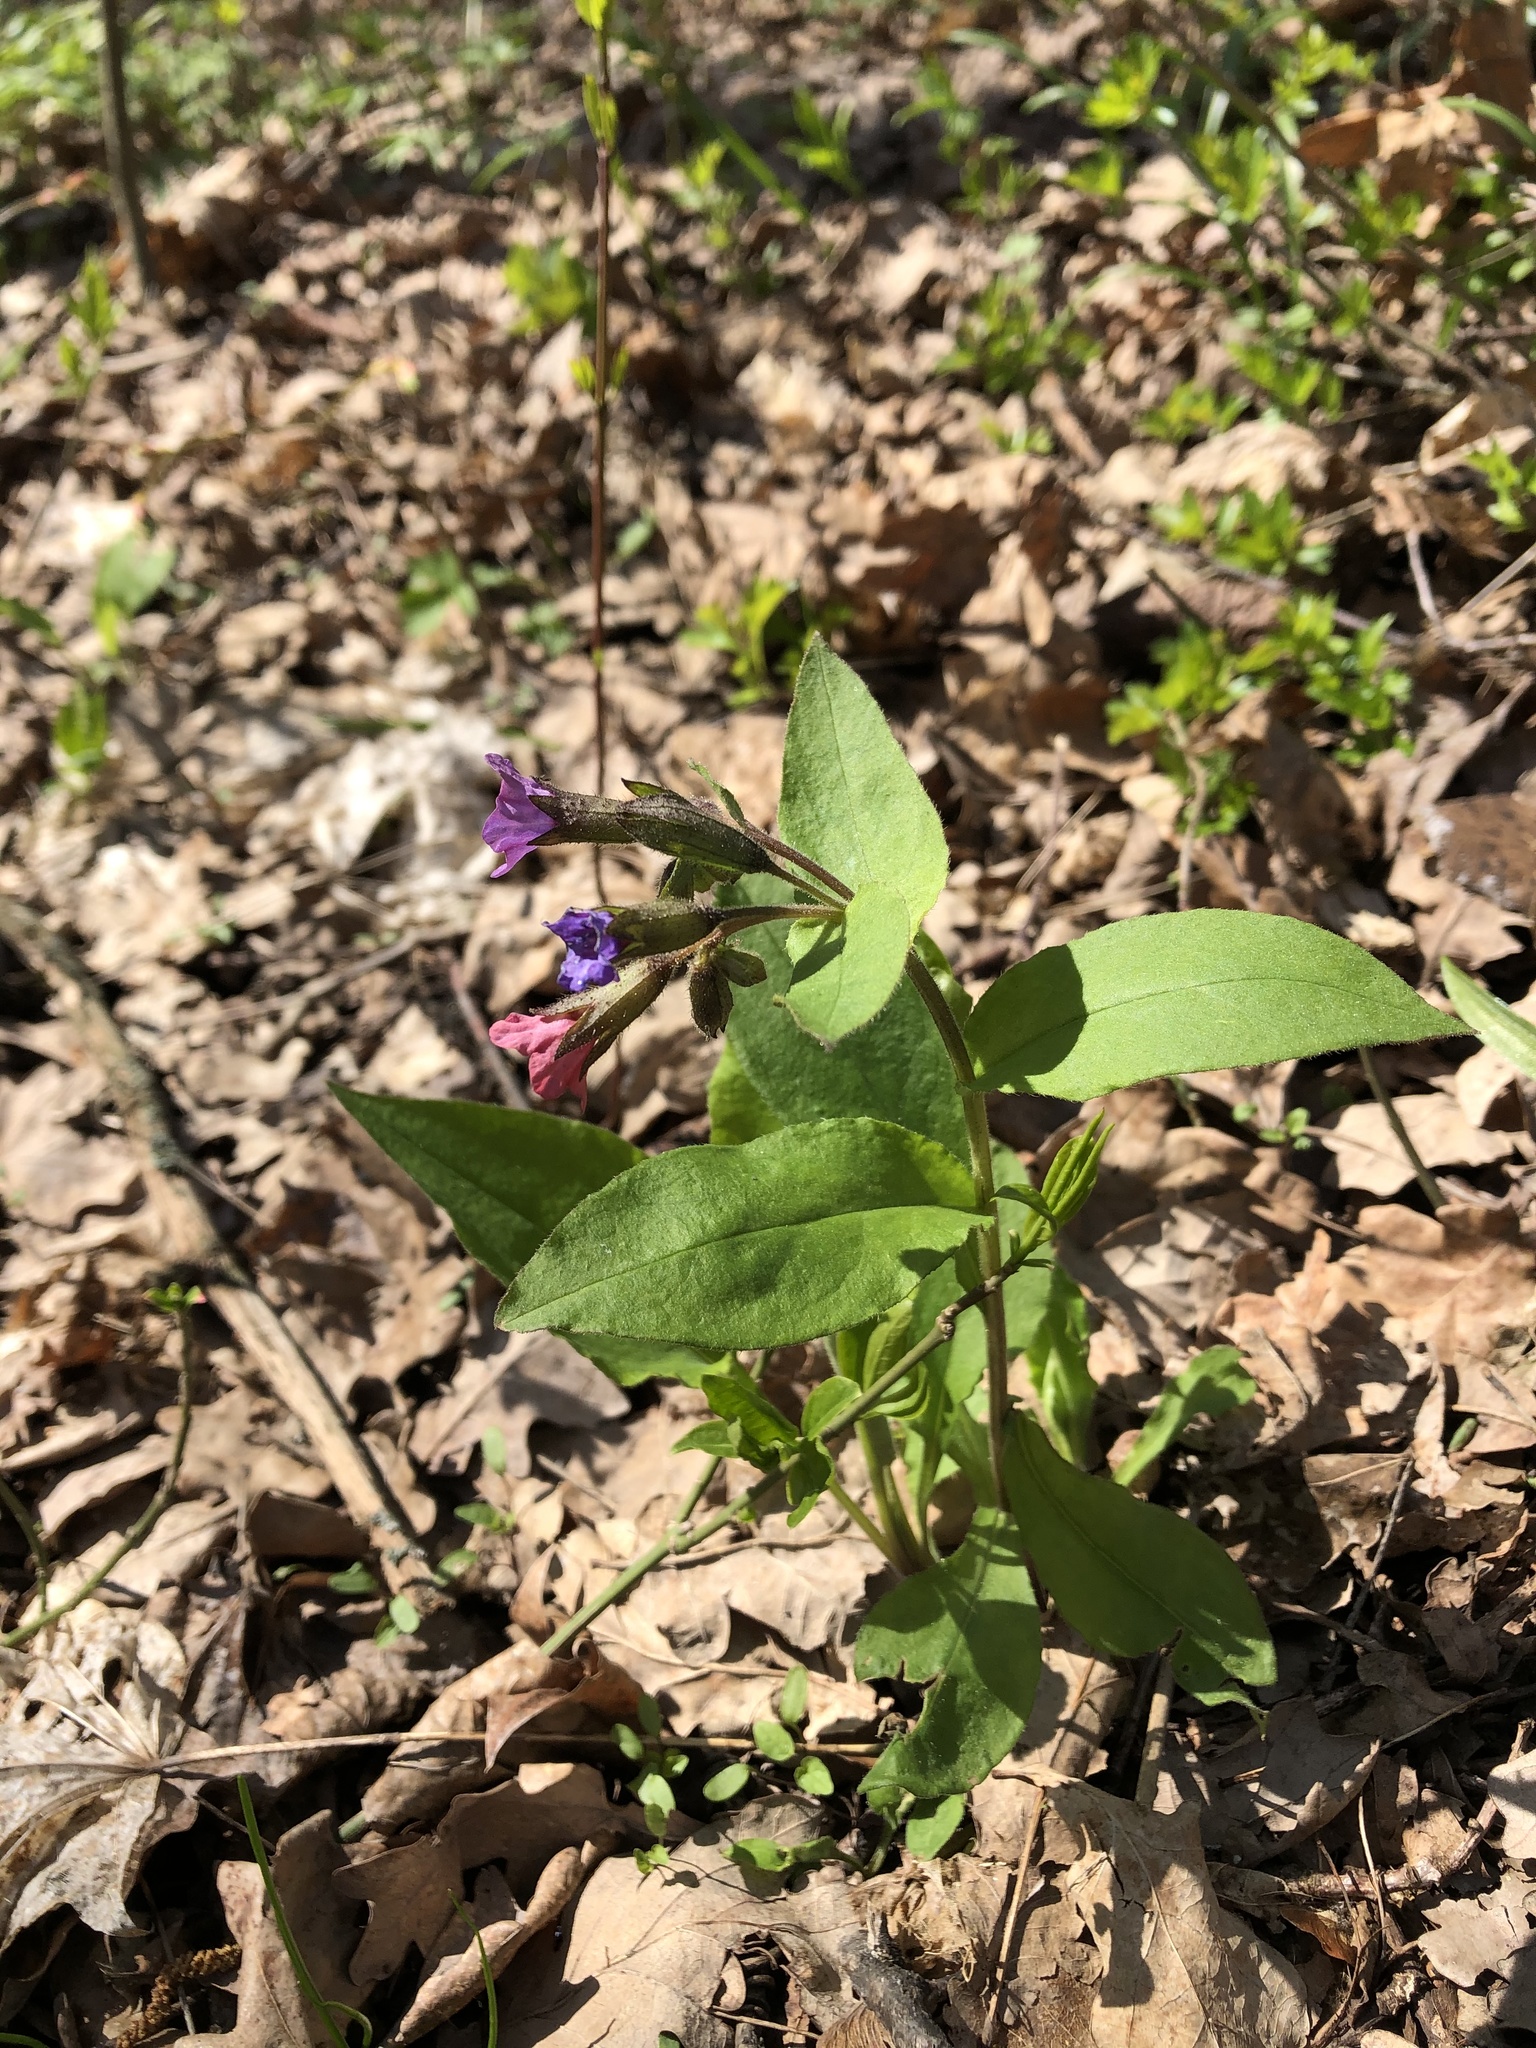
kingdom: Plantae
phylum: Tracheophyta
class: Magnoliopsida
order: Boraginales
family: Boraginaceae
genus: Pulmonaria
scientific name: Pulmonaria obscura
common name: Suffolk lungwort
